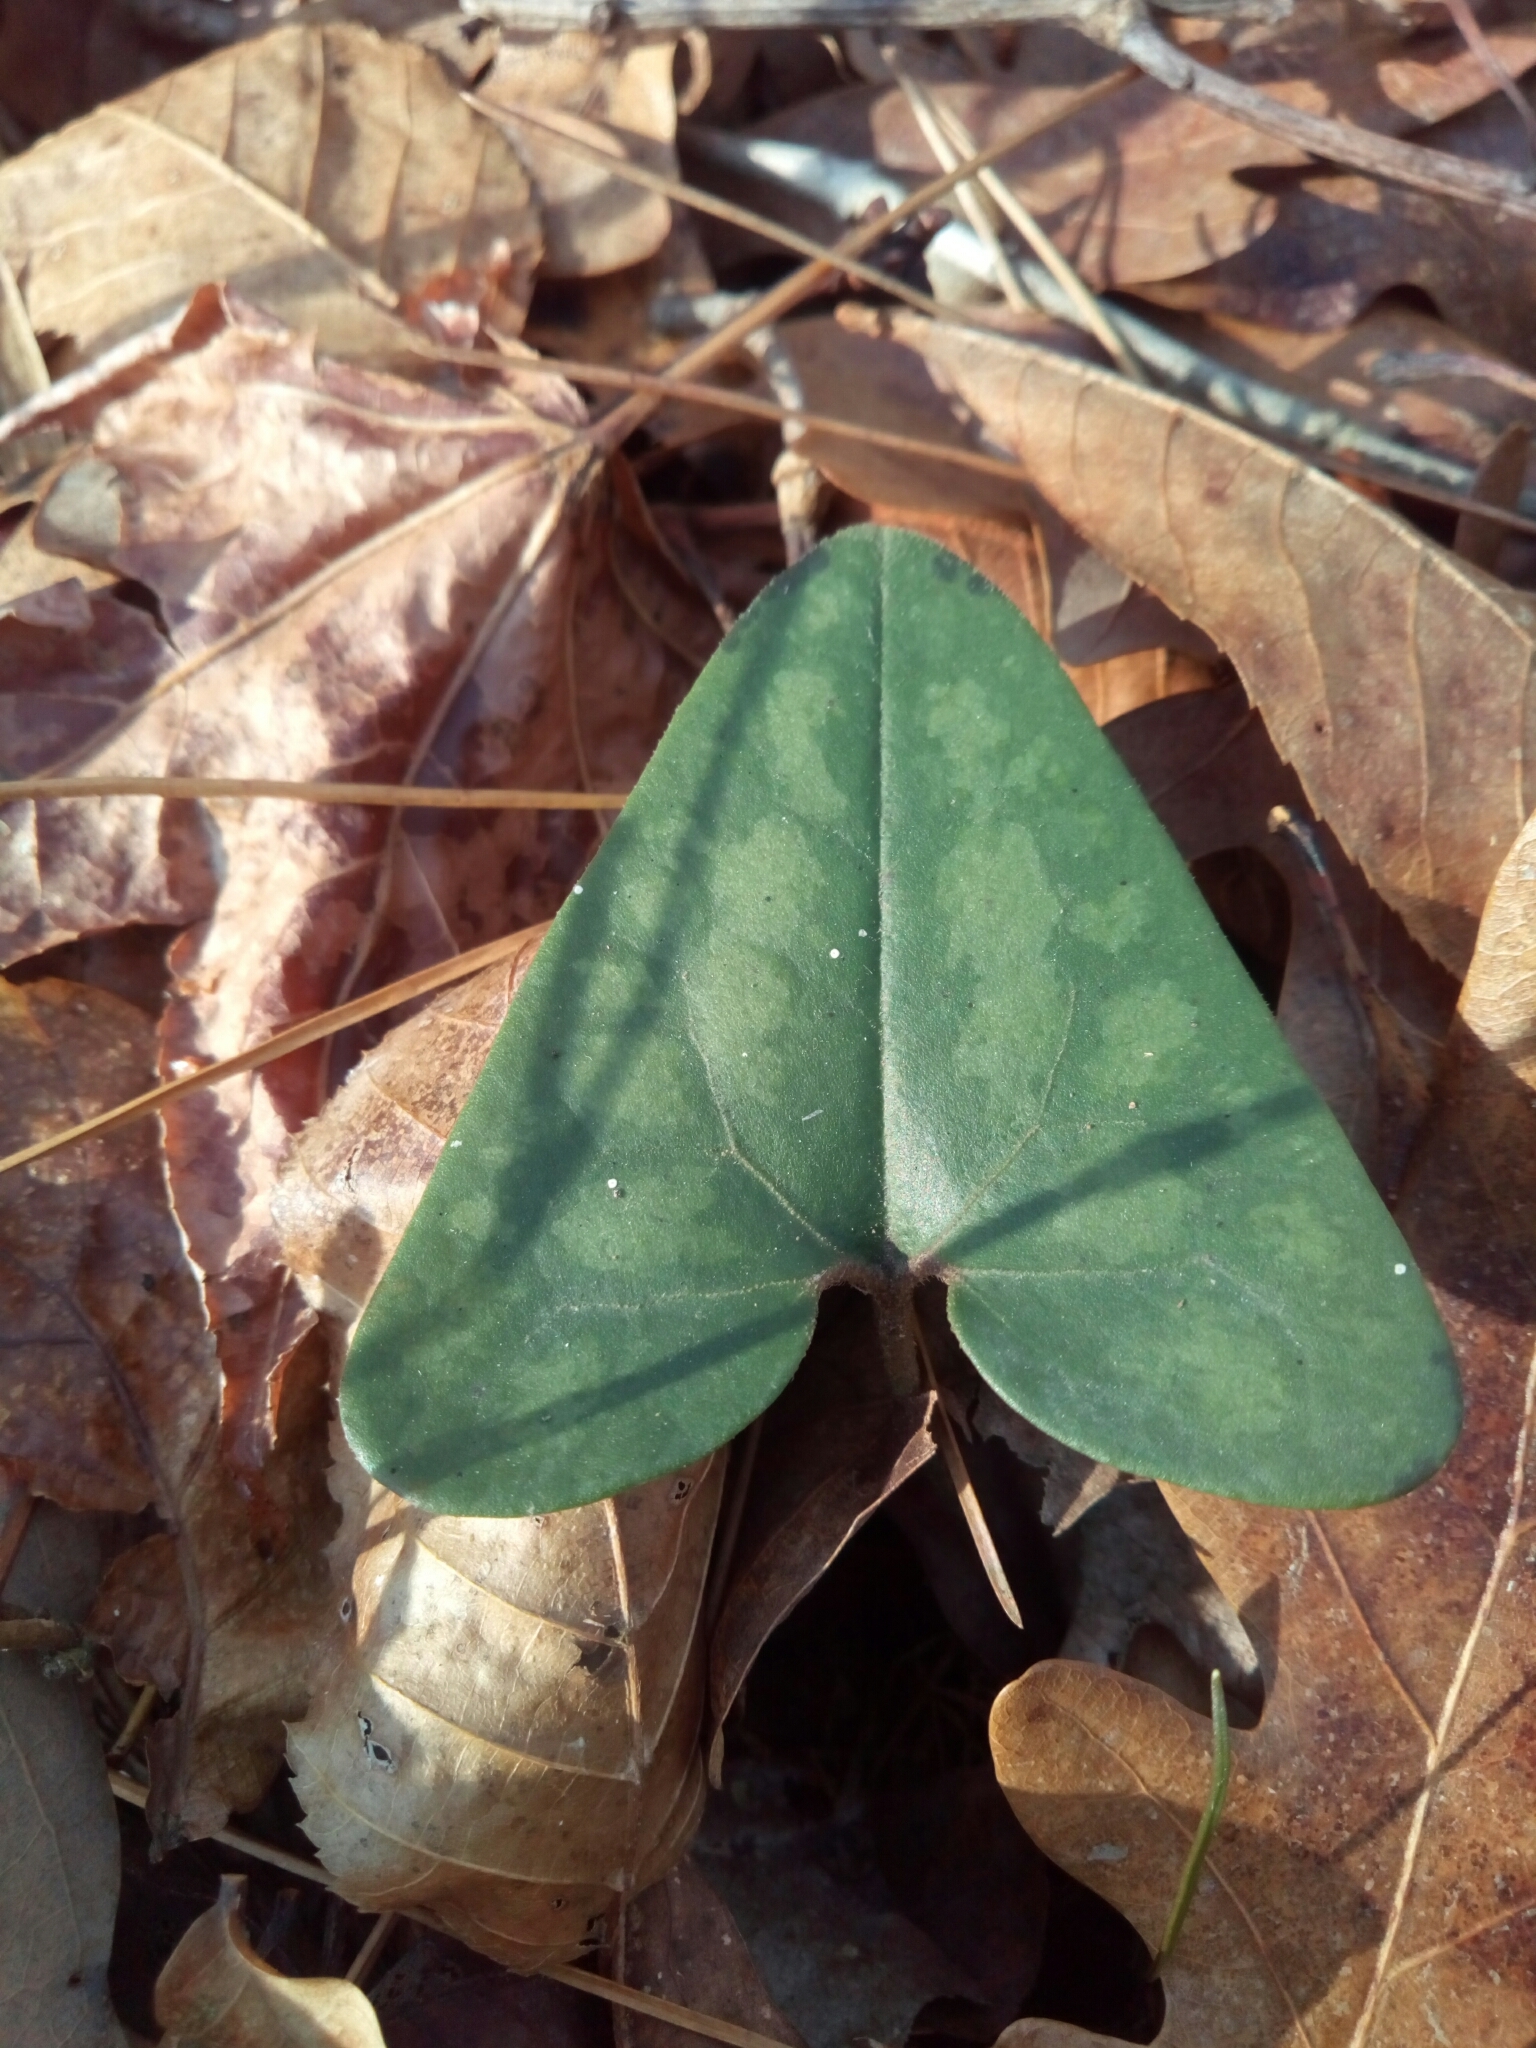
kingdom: Plantae
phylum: Tracheophyta
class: Magnoliopsida
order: Piperales
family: Aristolochiaceae
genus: Hexastylis
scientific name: Hexastylis arifolia
